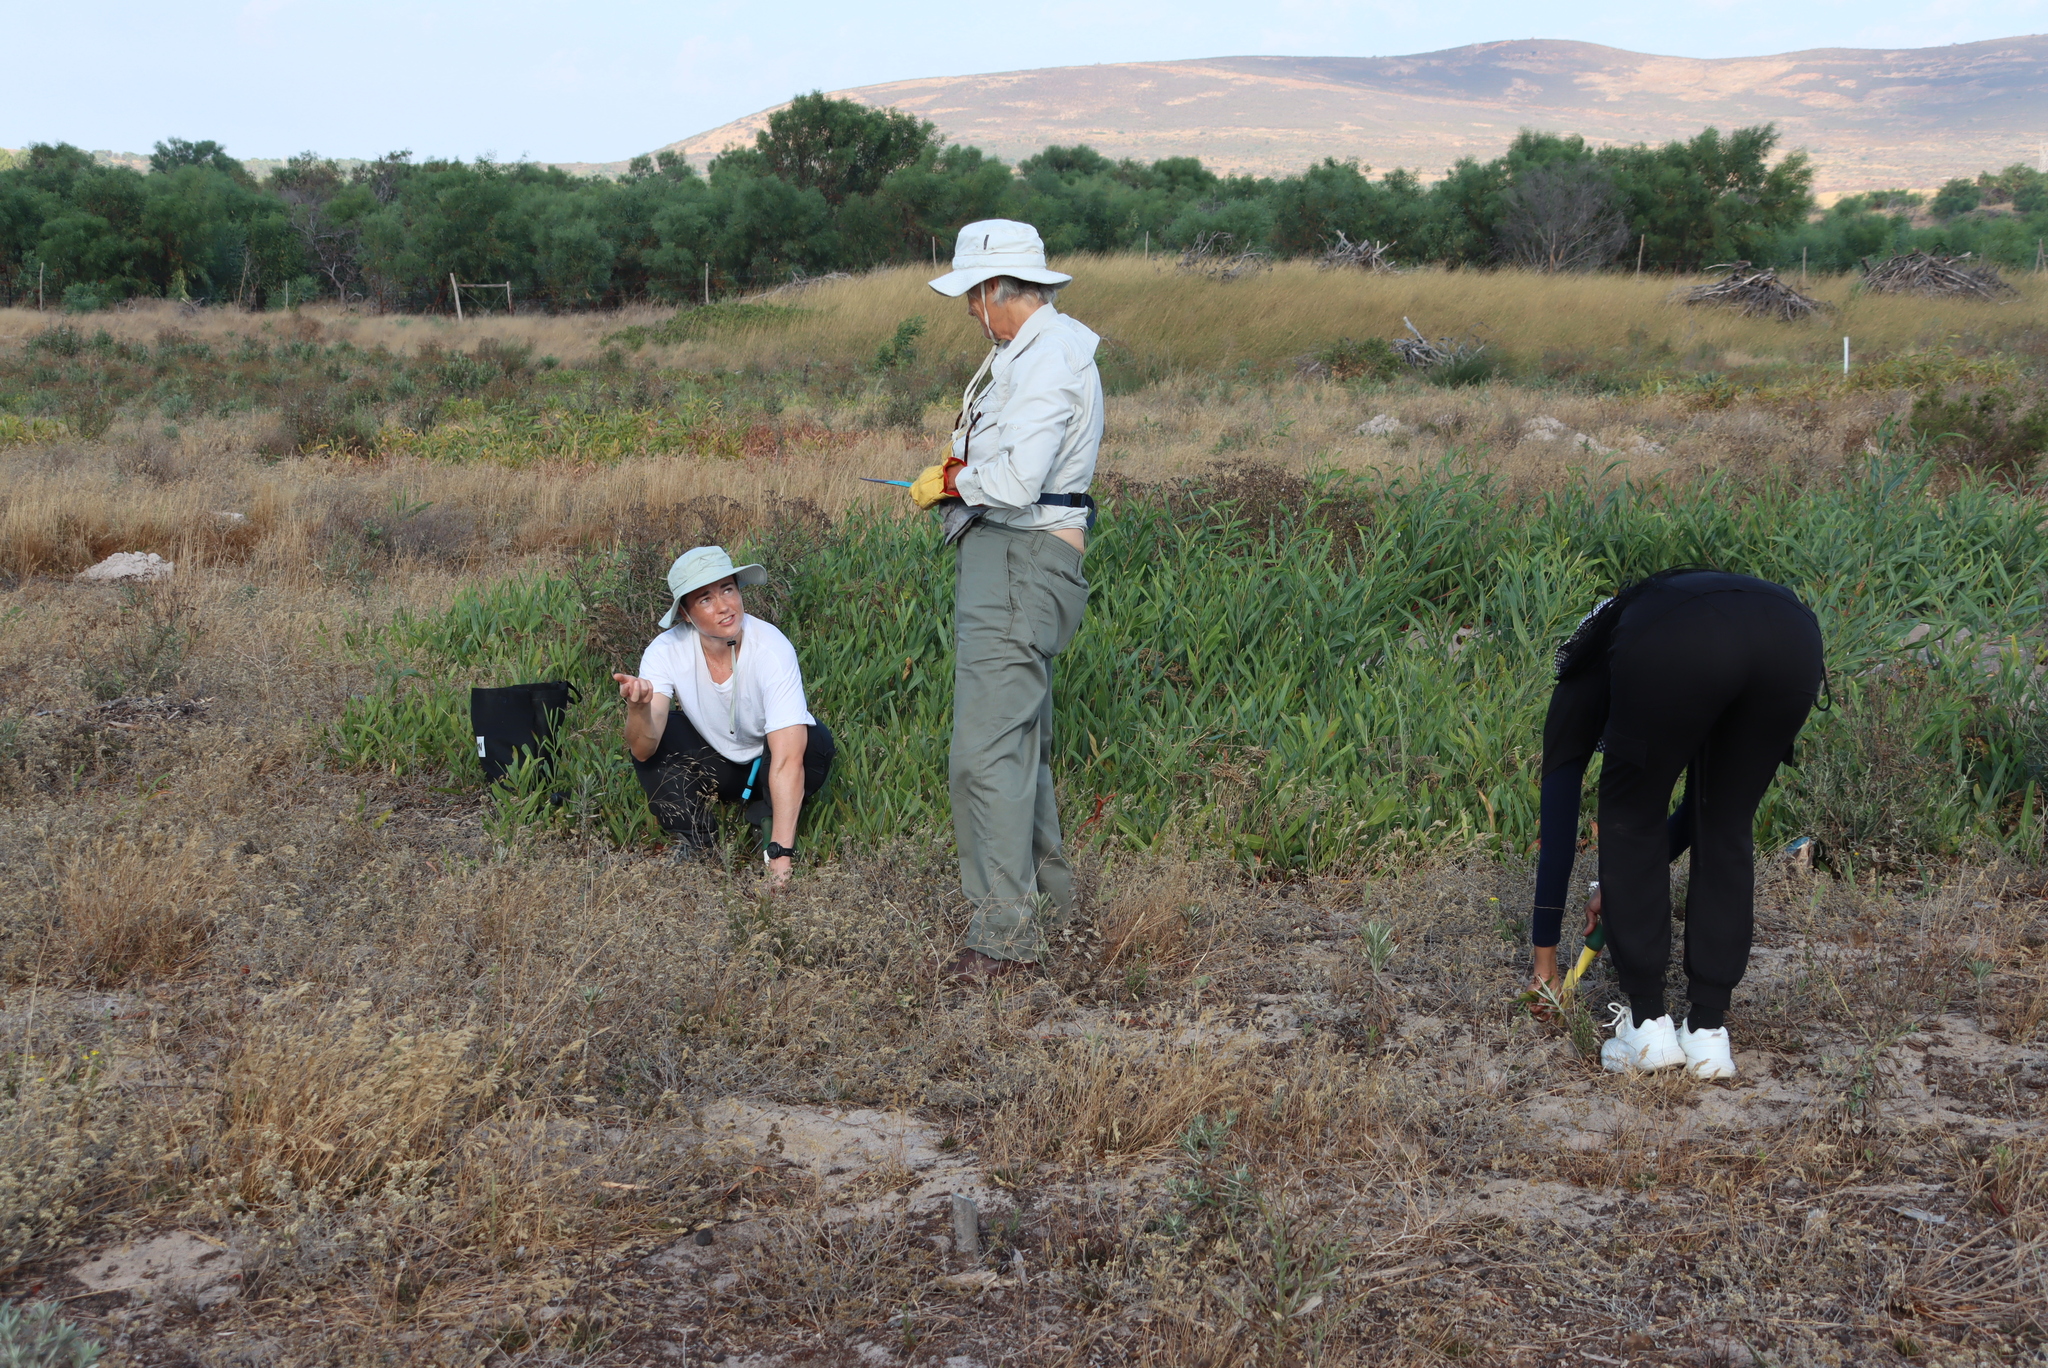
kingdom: Plantae
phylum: Tracheophyta
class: Magnoliopsida
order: Fabales
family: Fabaceae
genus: Acacia
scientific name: Acacia saligna
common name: Orange wattle
